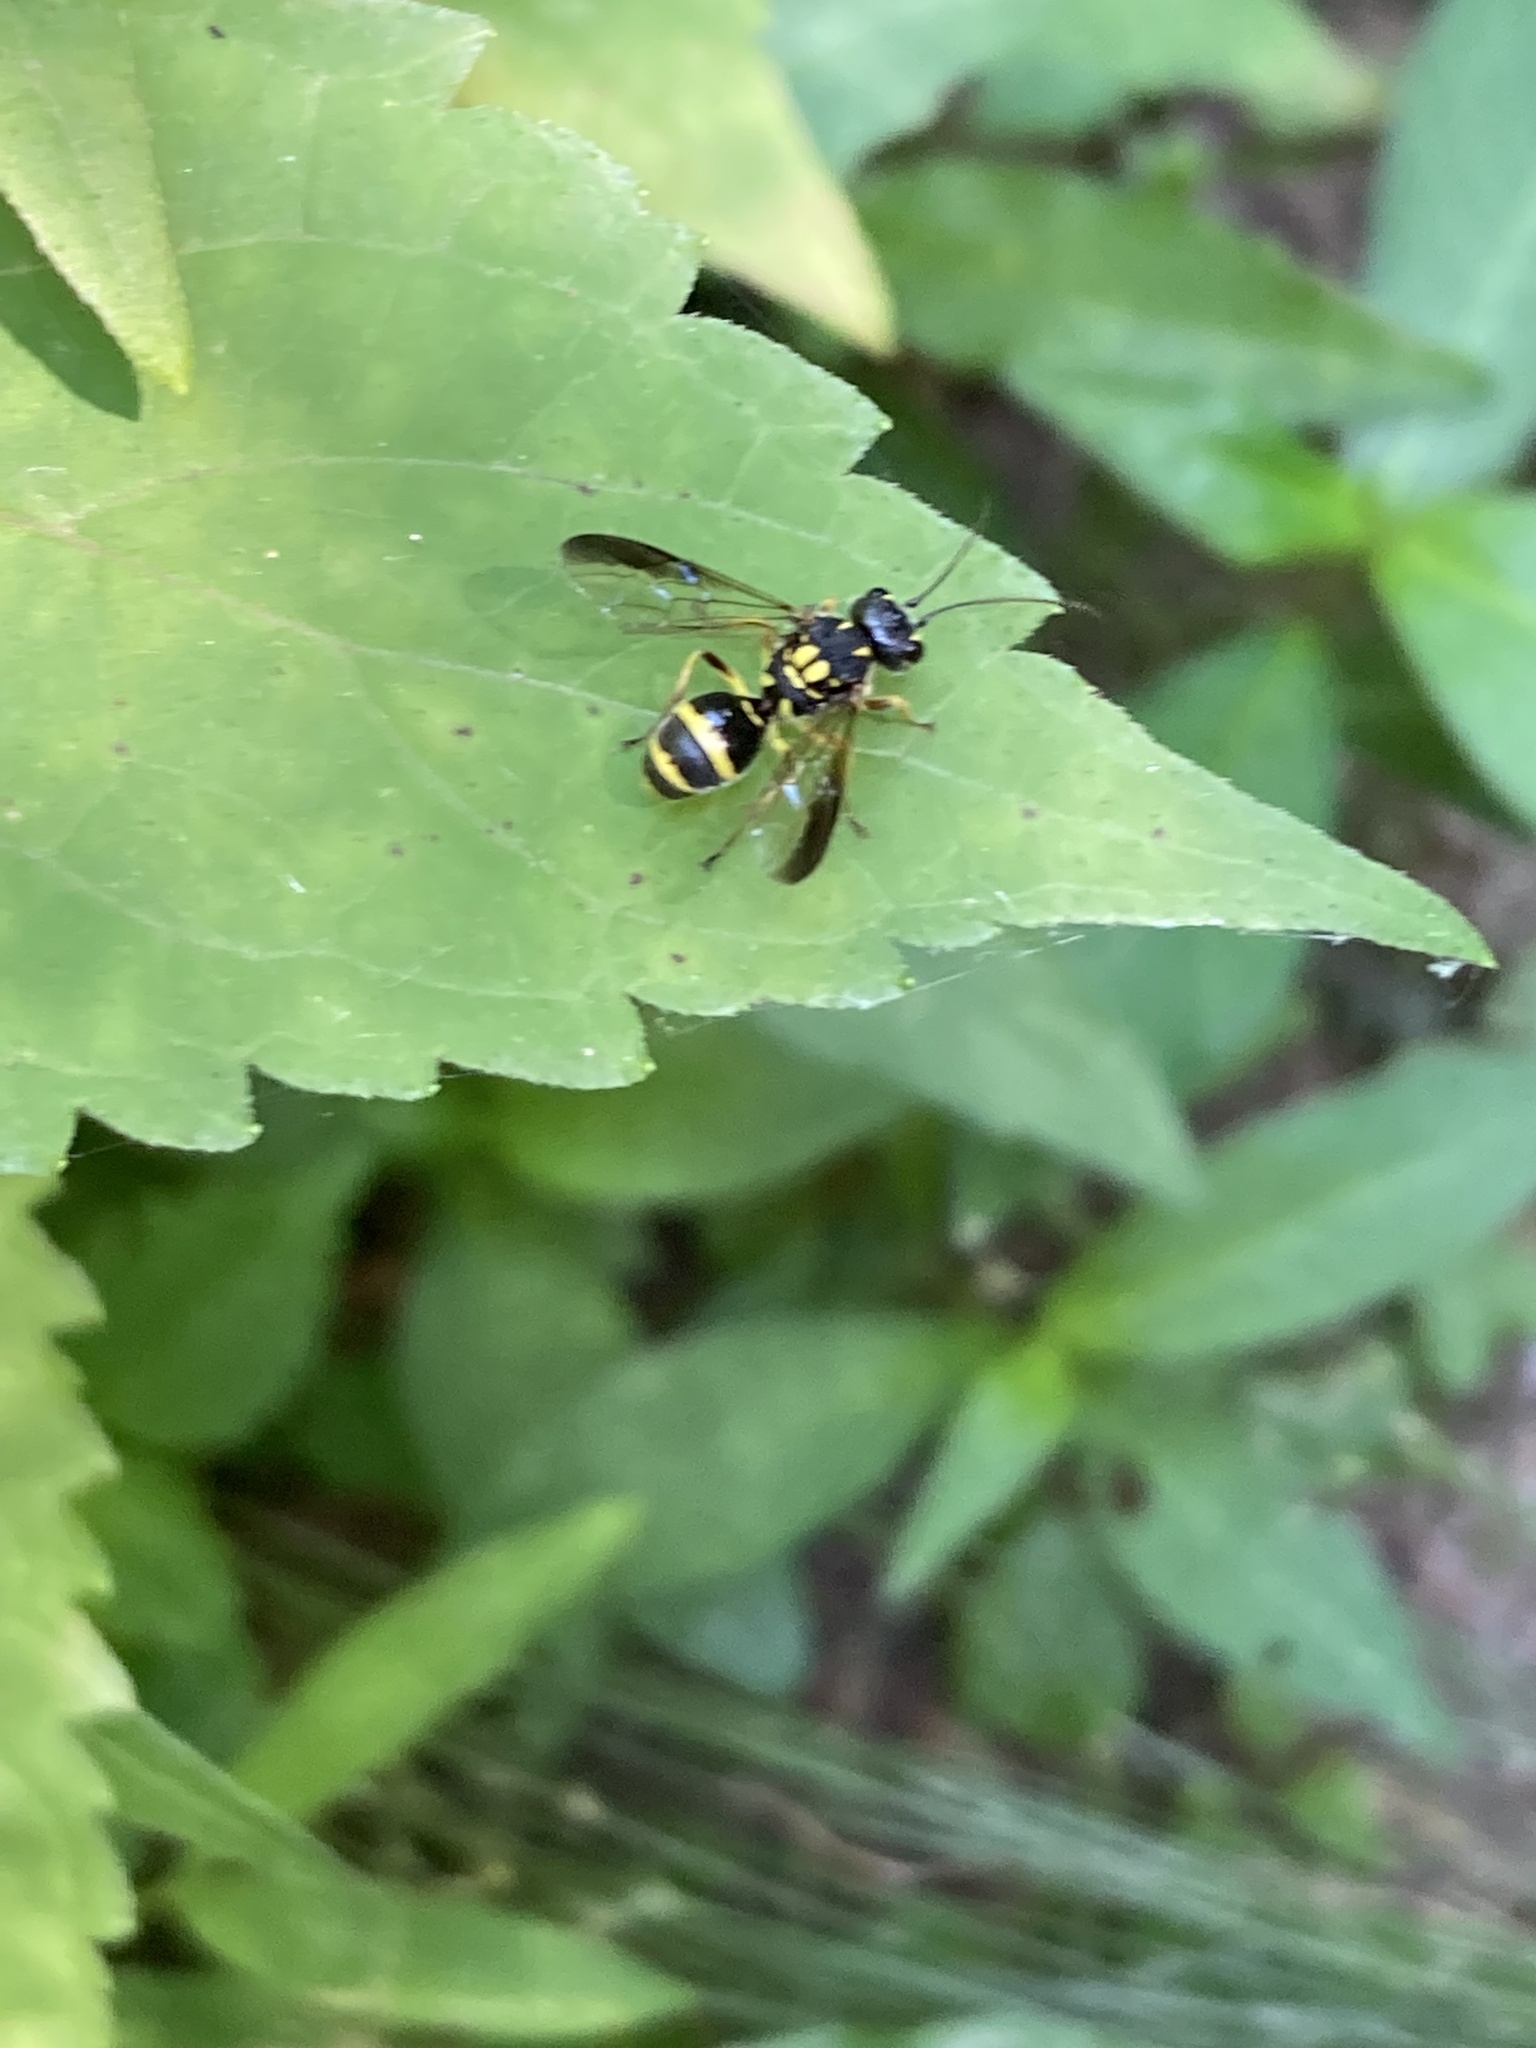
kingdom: Animalia
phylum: Arthropoda
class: Insecta
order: Hymenoptera
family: Trigonalidae
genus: Taeniogonalos
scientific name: Taeniogonalos gundlachii
